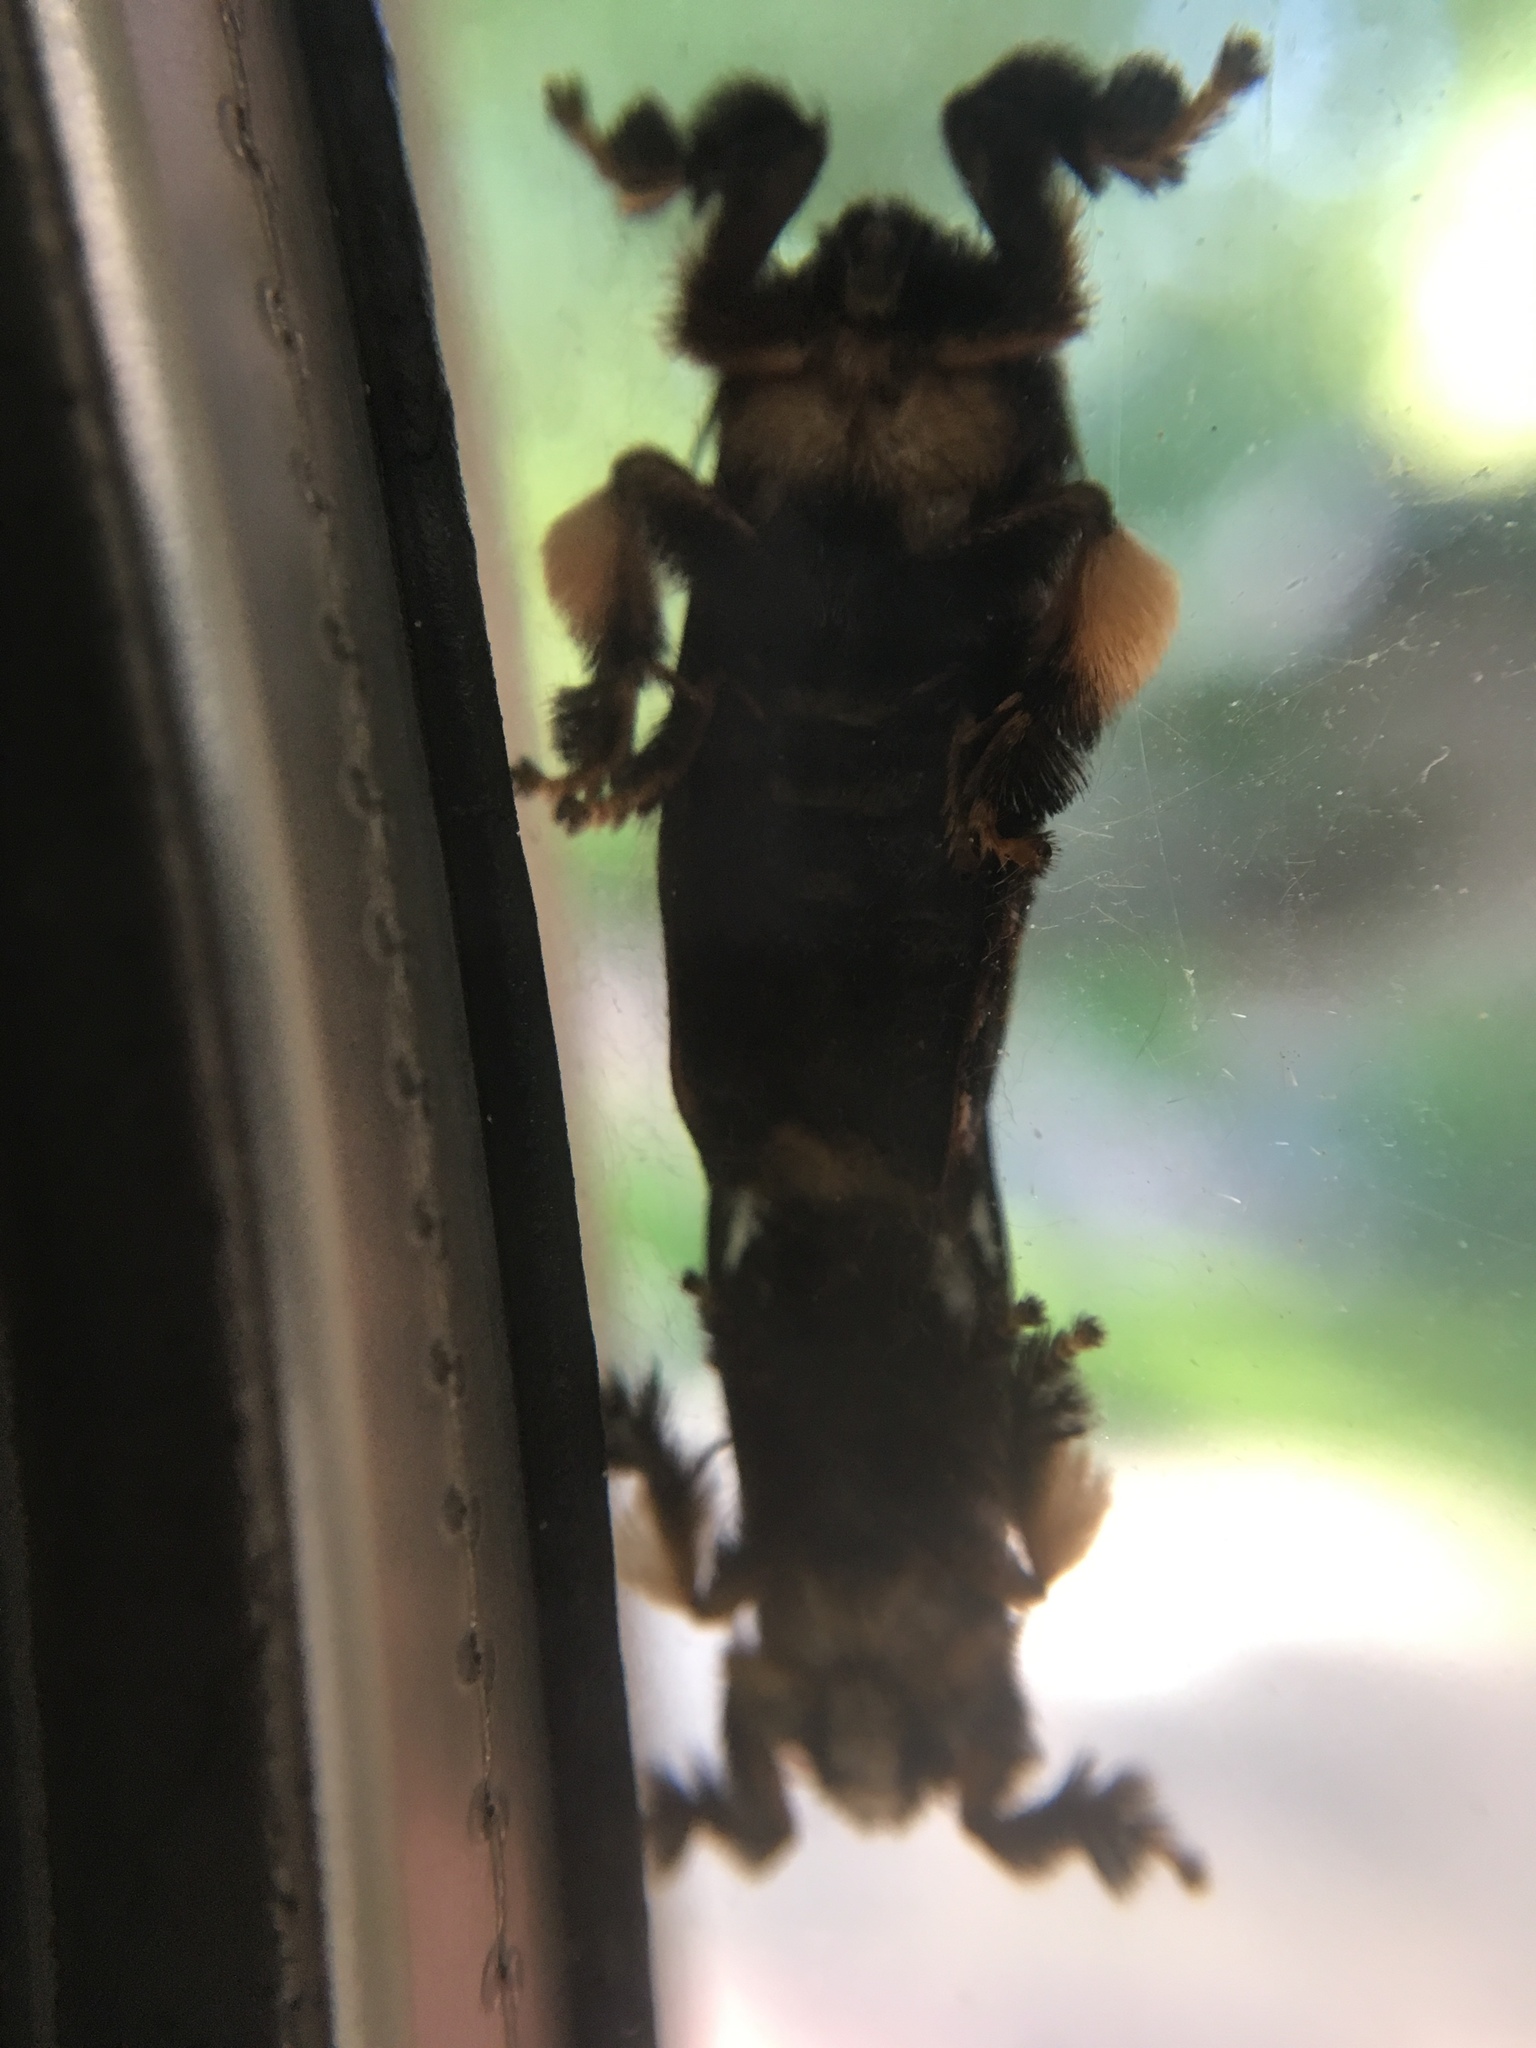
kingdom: Animalia
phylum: Arthropoda
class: Insecta
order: Lepidoptera
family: Limacodidae
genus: Phobetron
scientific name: Phobetron pithecium
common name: Hag moth
